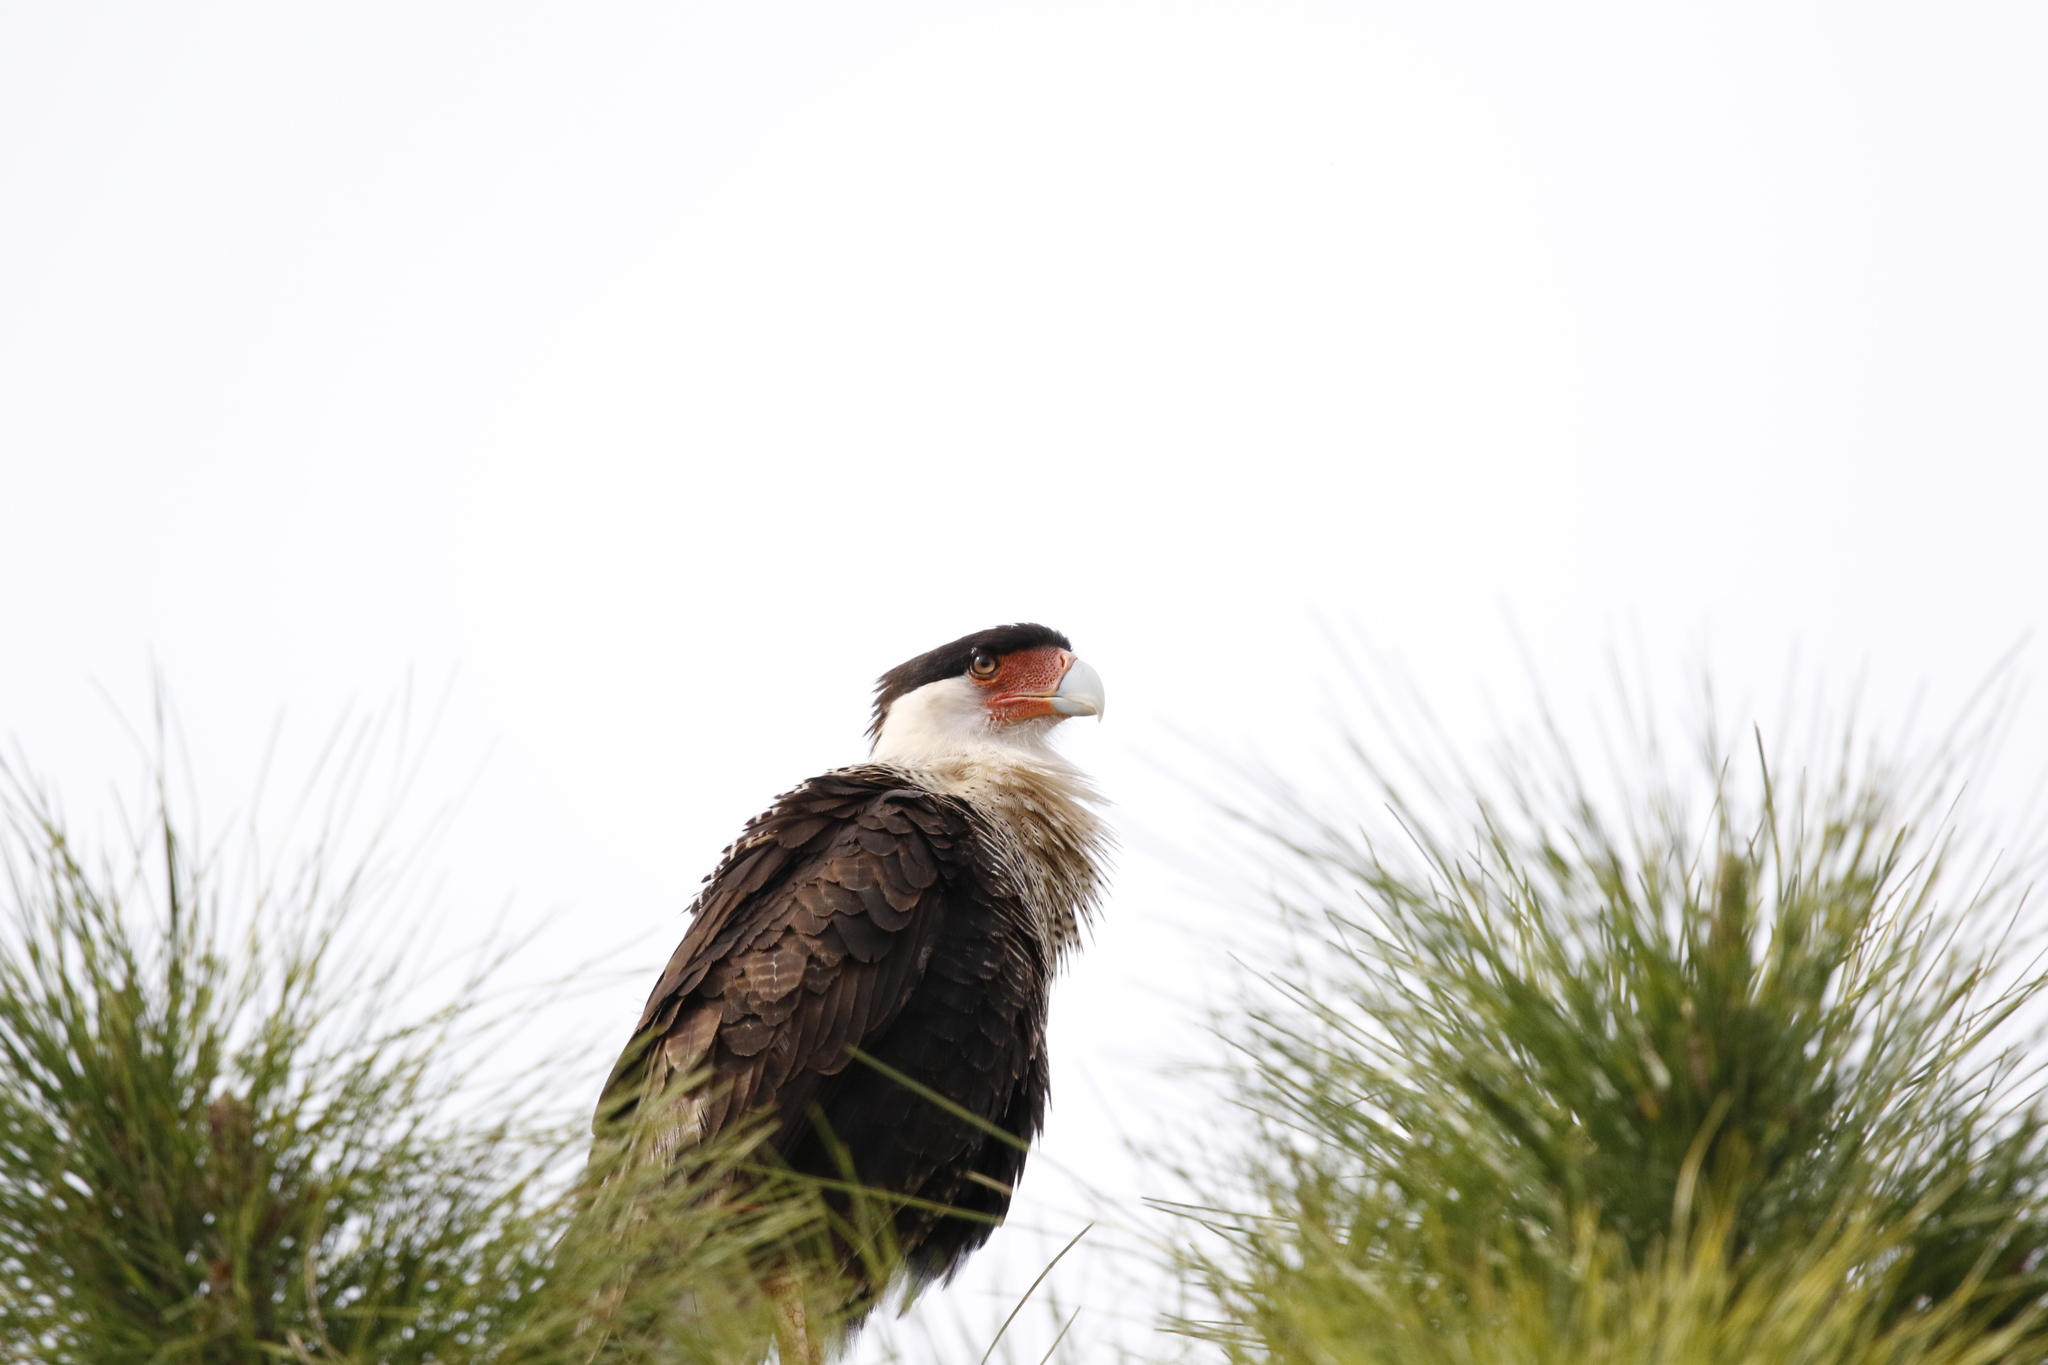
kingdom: Animalia
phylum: Chordata
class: Aves
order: Falconiformes
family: Falconidae
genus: Caracara
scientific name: Caracara plancus
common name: Southern caracara
